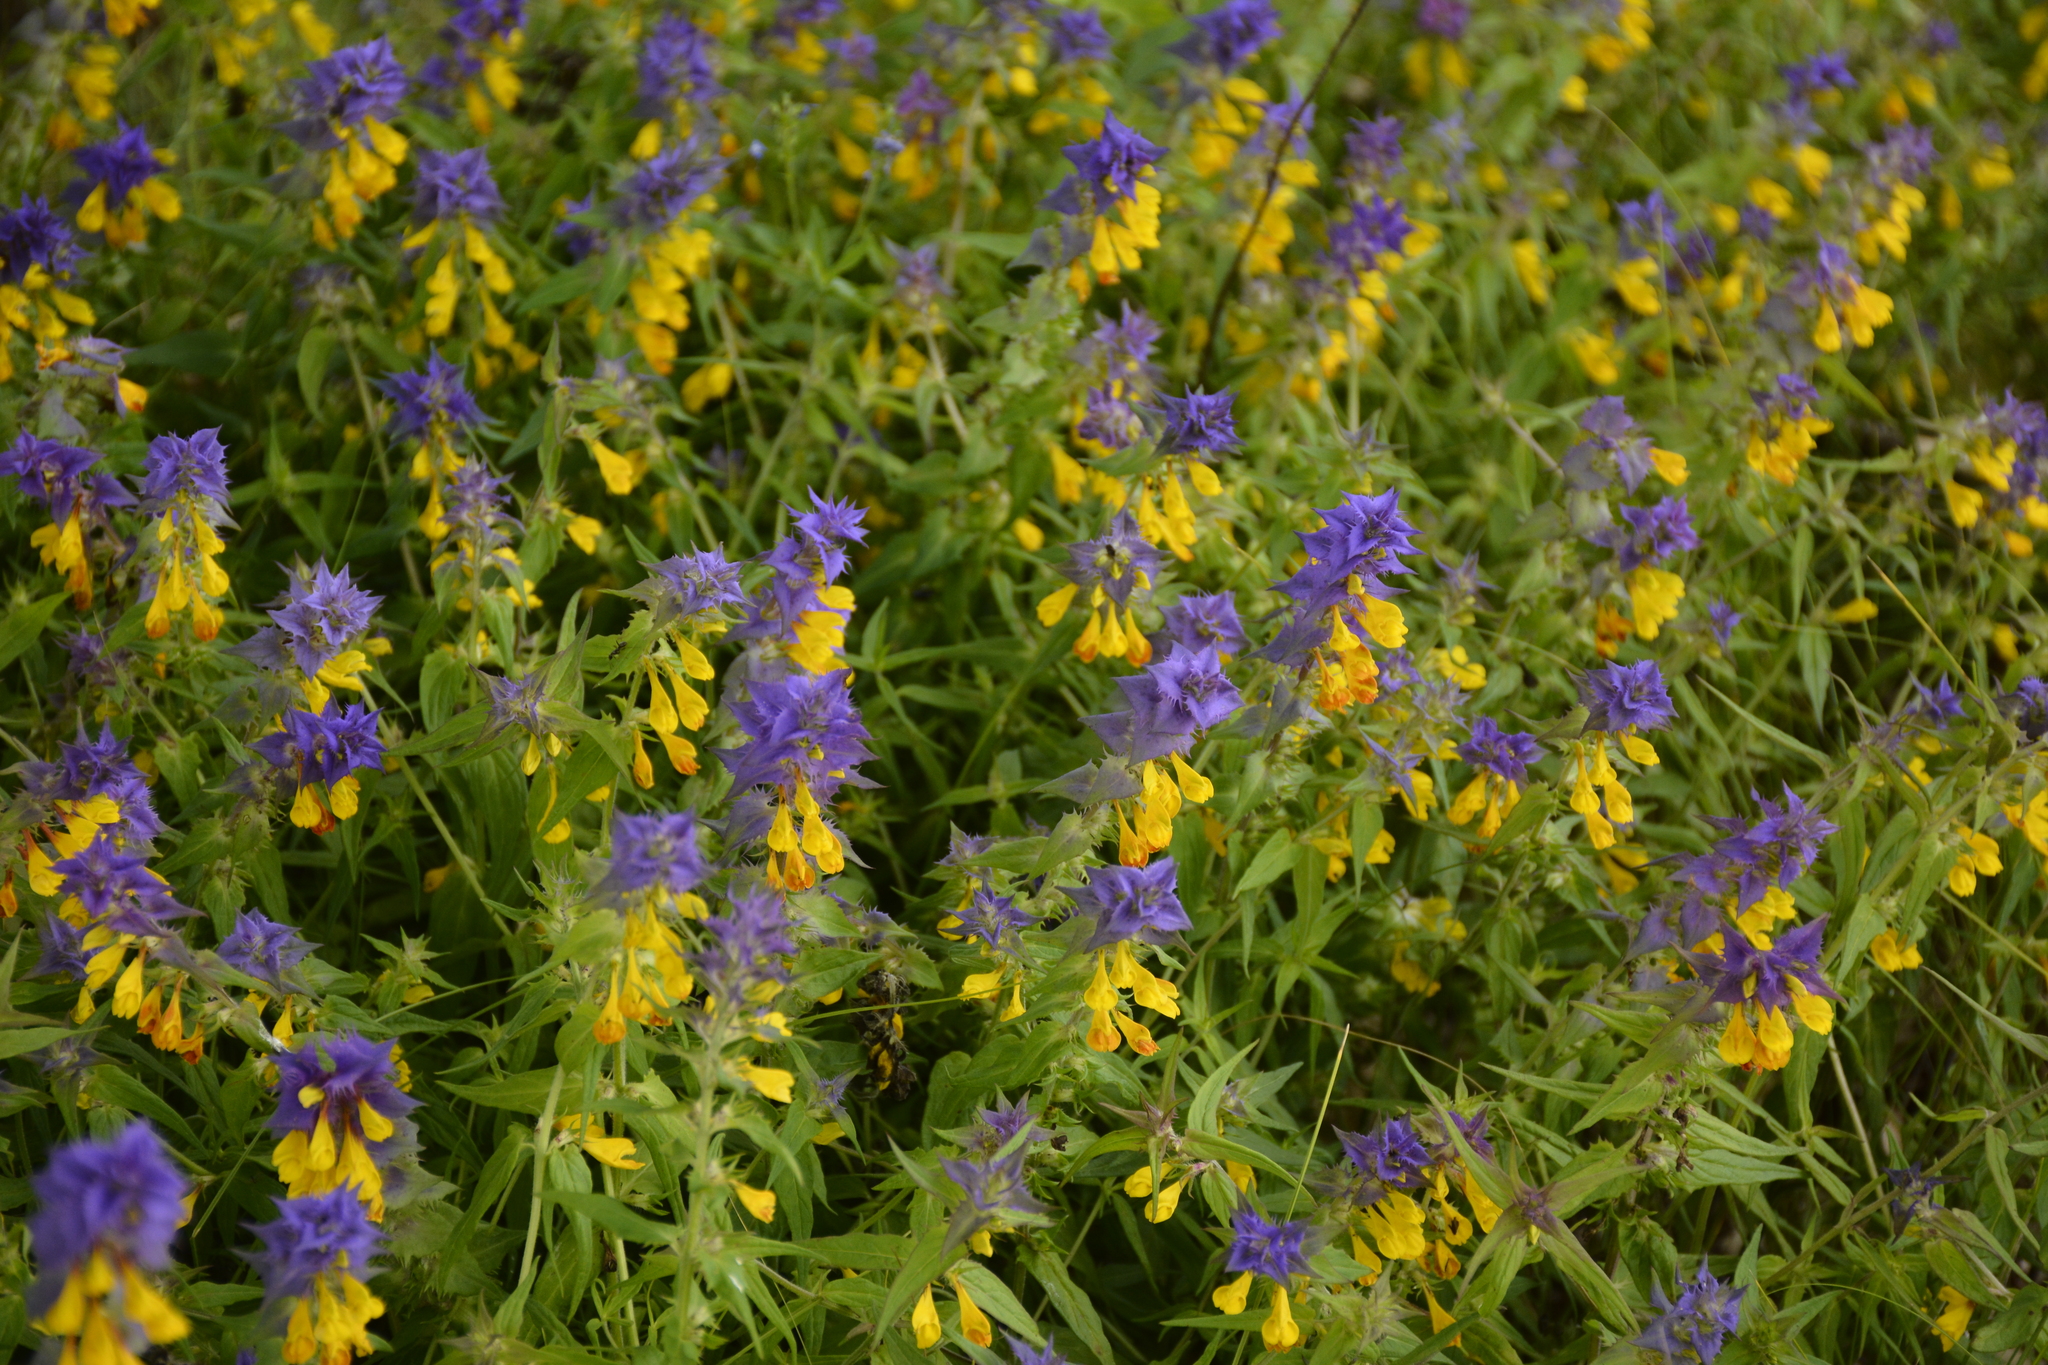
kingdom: Plantae
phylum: Tracheophyta
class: Magnoliopsida
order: Lamiales
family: Orobanchaceae
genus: Melampyrum
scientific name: Melampyrum nemorosum
